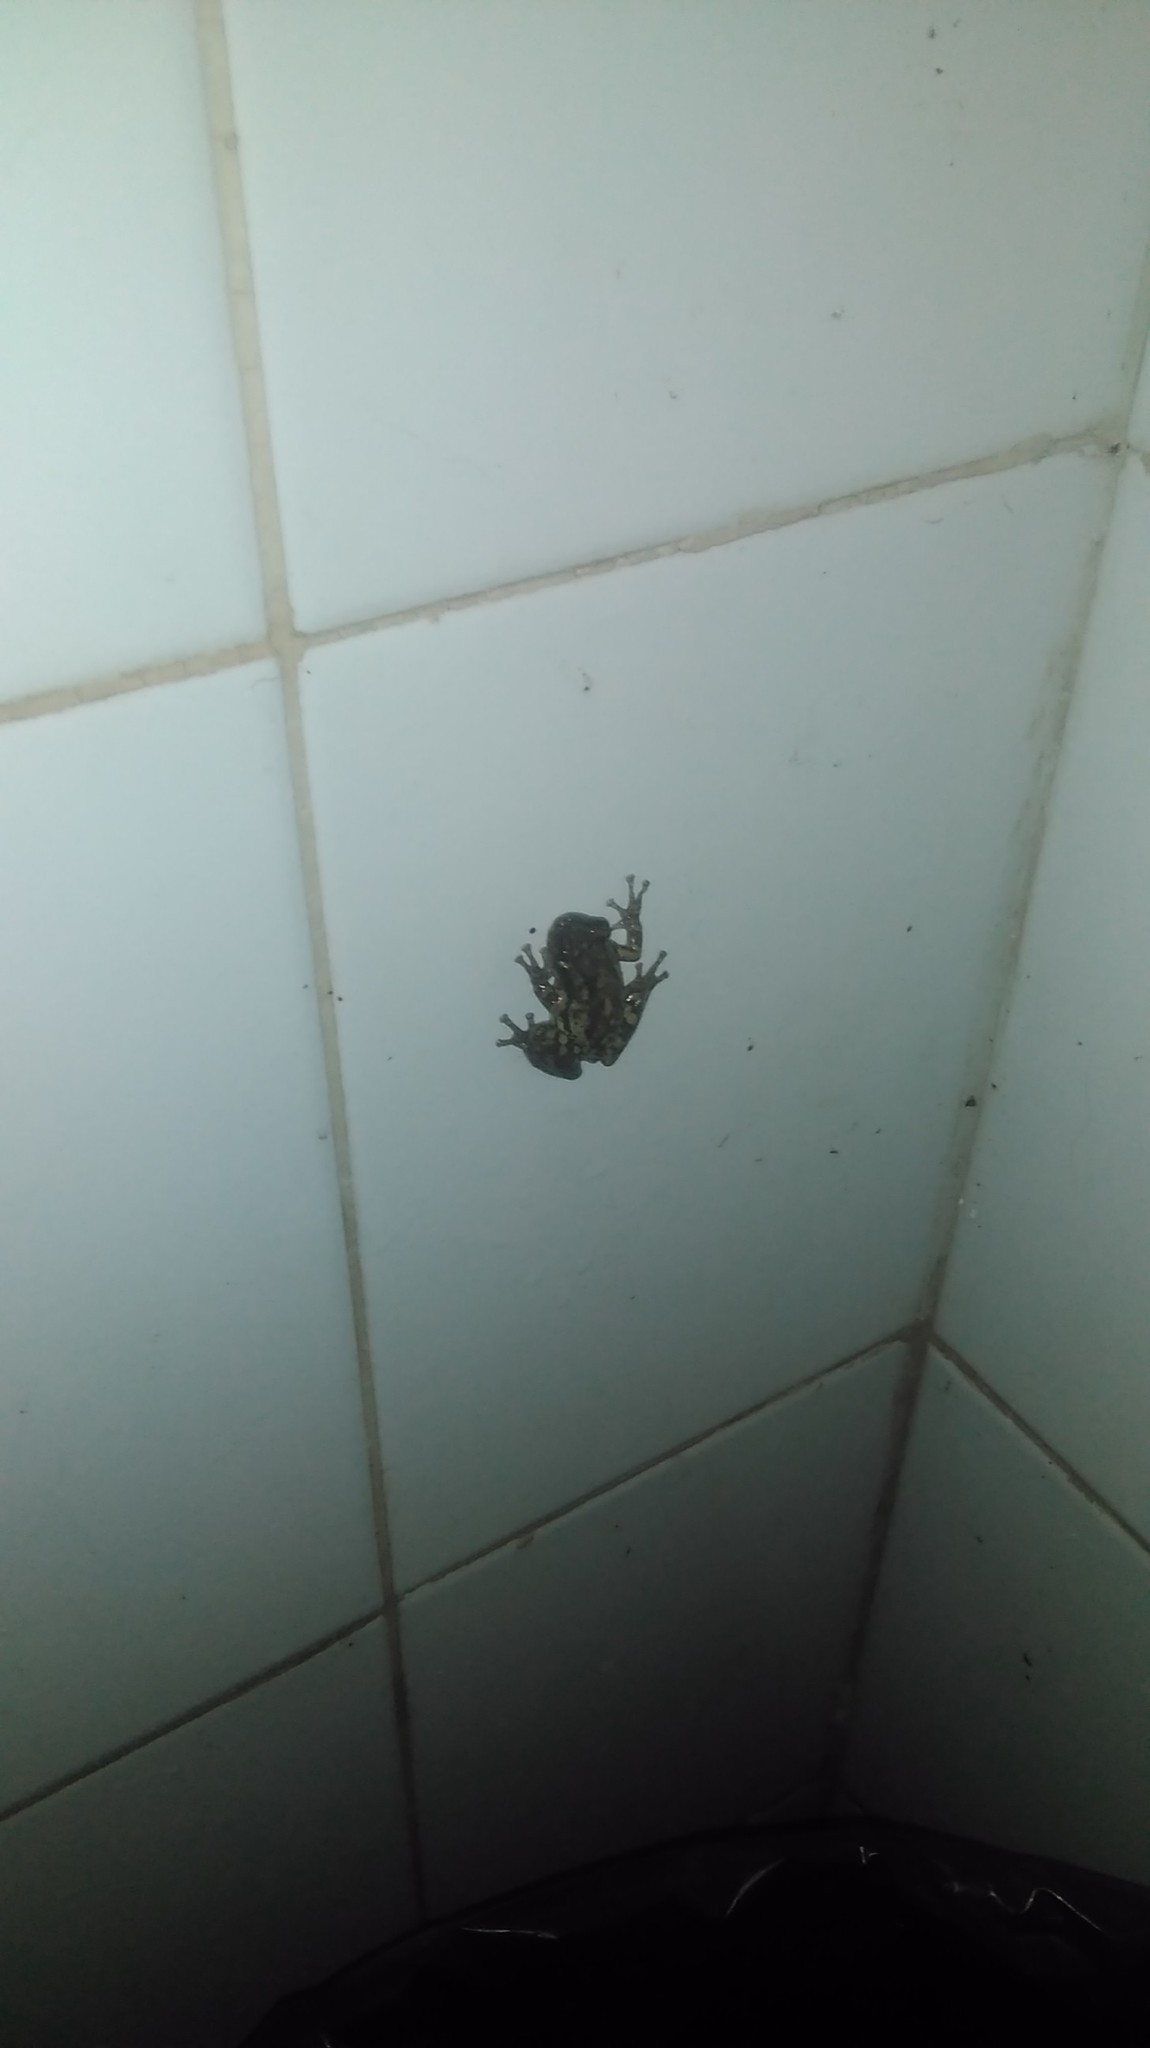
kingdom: Animalia
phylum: Chordata
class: Amphibia
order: Anura
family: Hylidae
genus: Scinax
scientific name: Scinax granulatus
